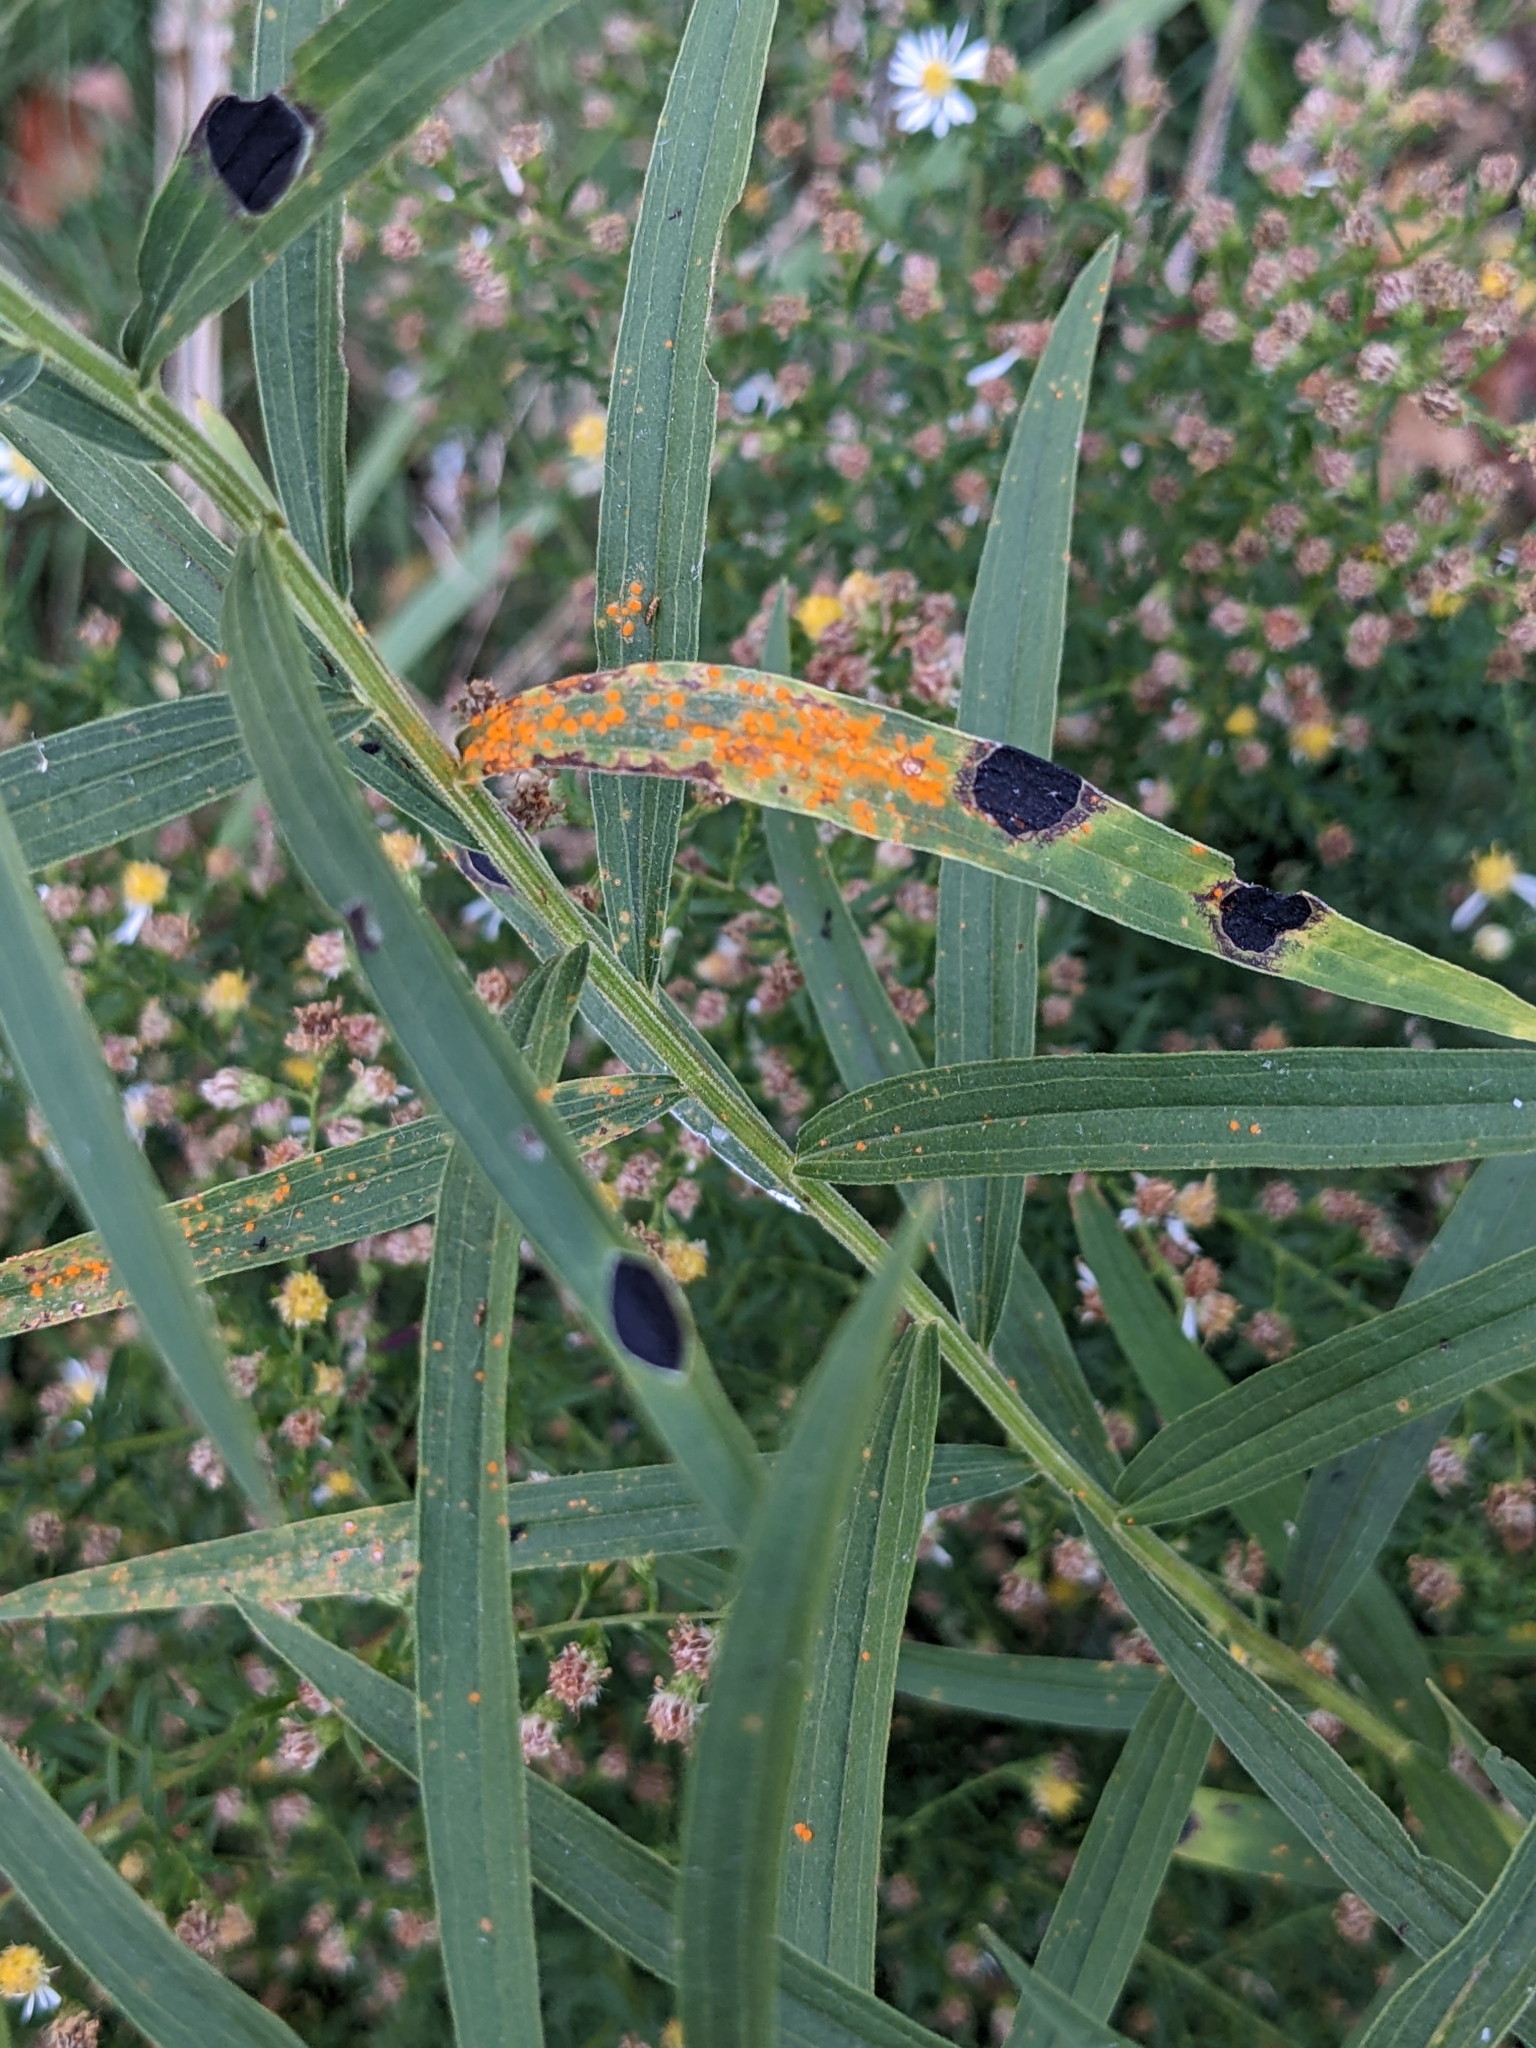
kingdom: Animalia
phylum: Arthropoda
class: Insecta
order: Diptera
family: Cecidomyiidae
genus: Asteromyia
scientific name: Asteromyia euthamiae
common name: Euthamia leaf gall midge
